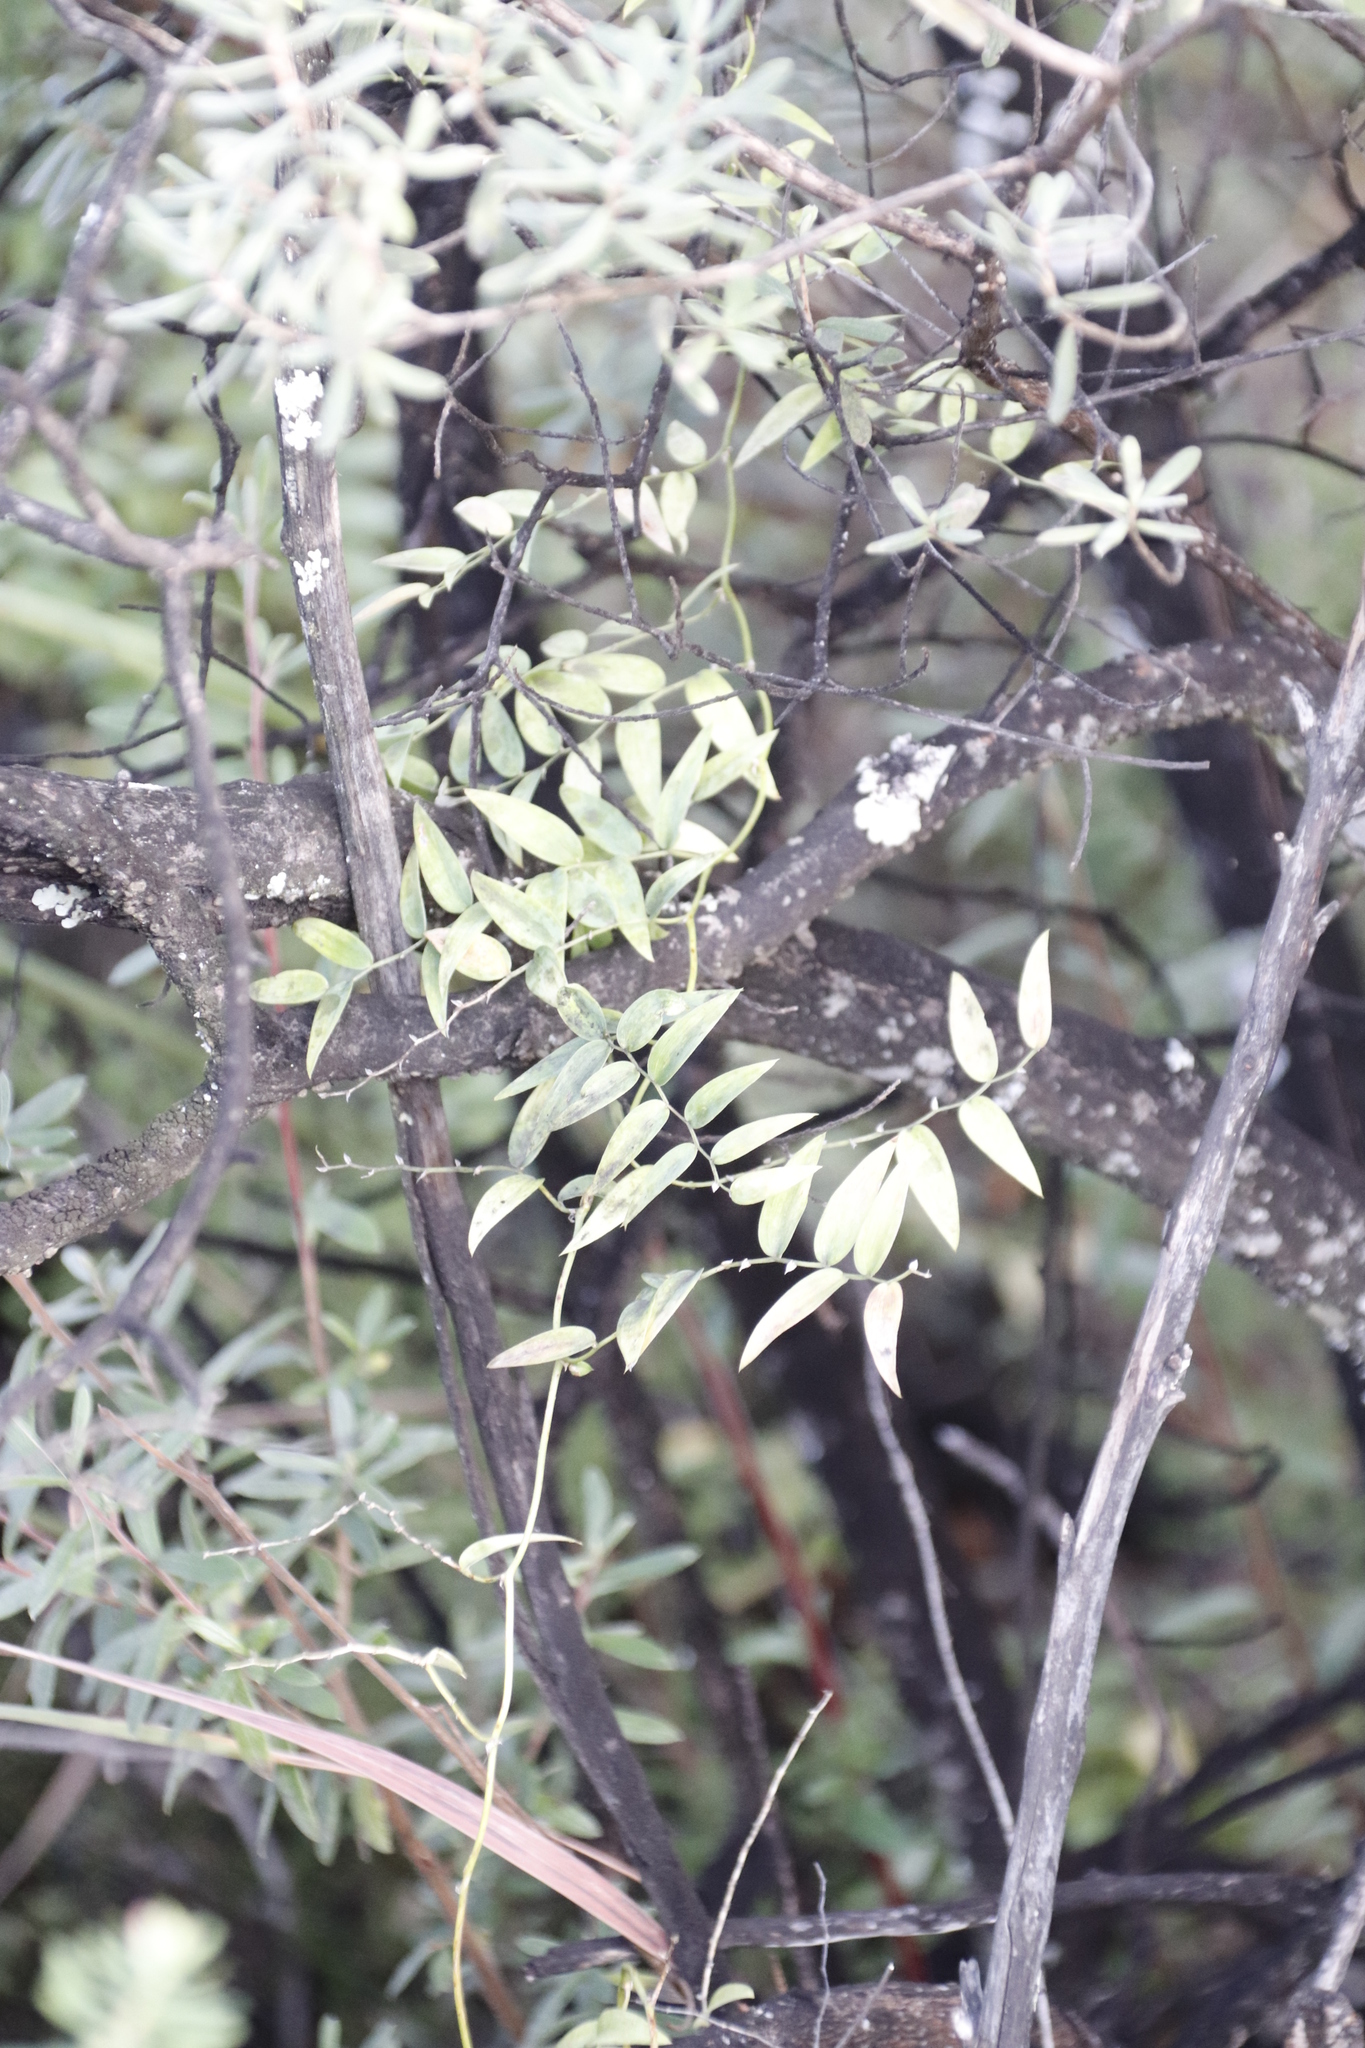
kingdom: Plantae
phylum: Tracheophyta
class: Liliopsida
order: Asparagales
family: Asparagaceae
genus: Asparagus
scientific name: Asparagus asparagoides
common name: African asparagus fern
